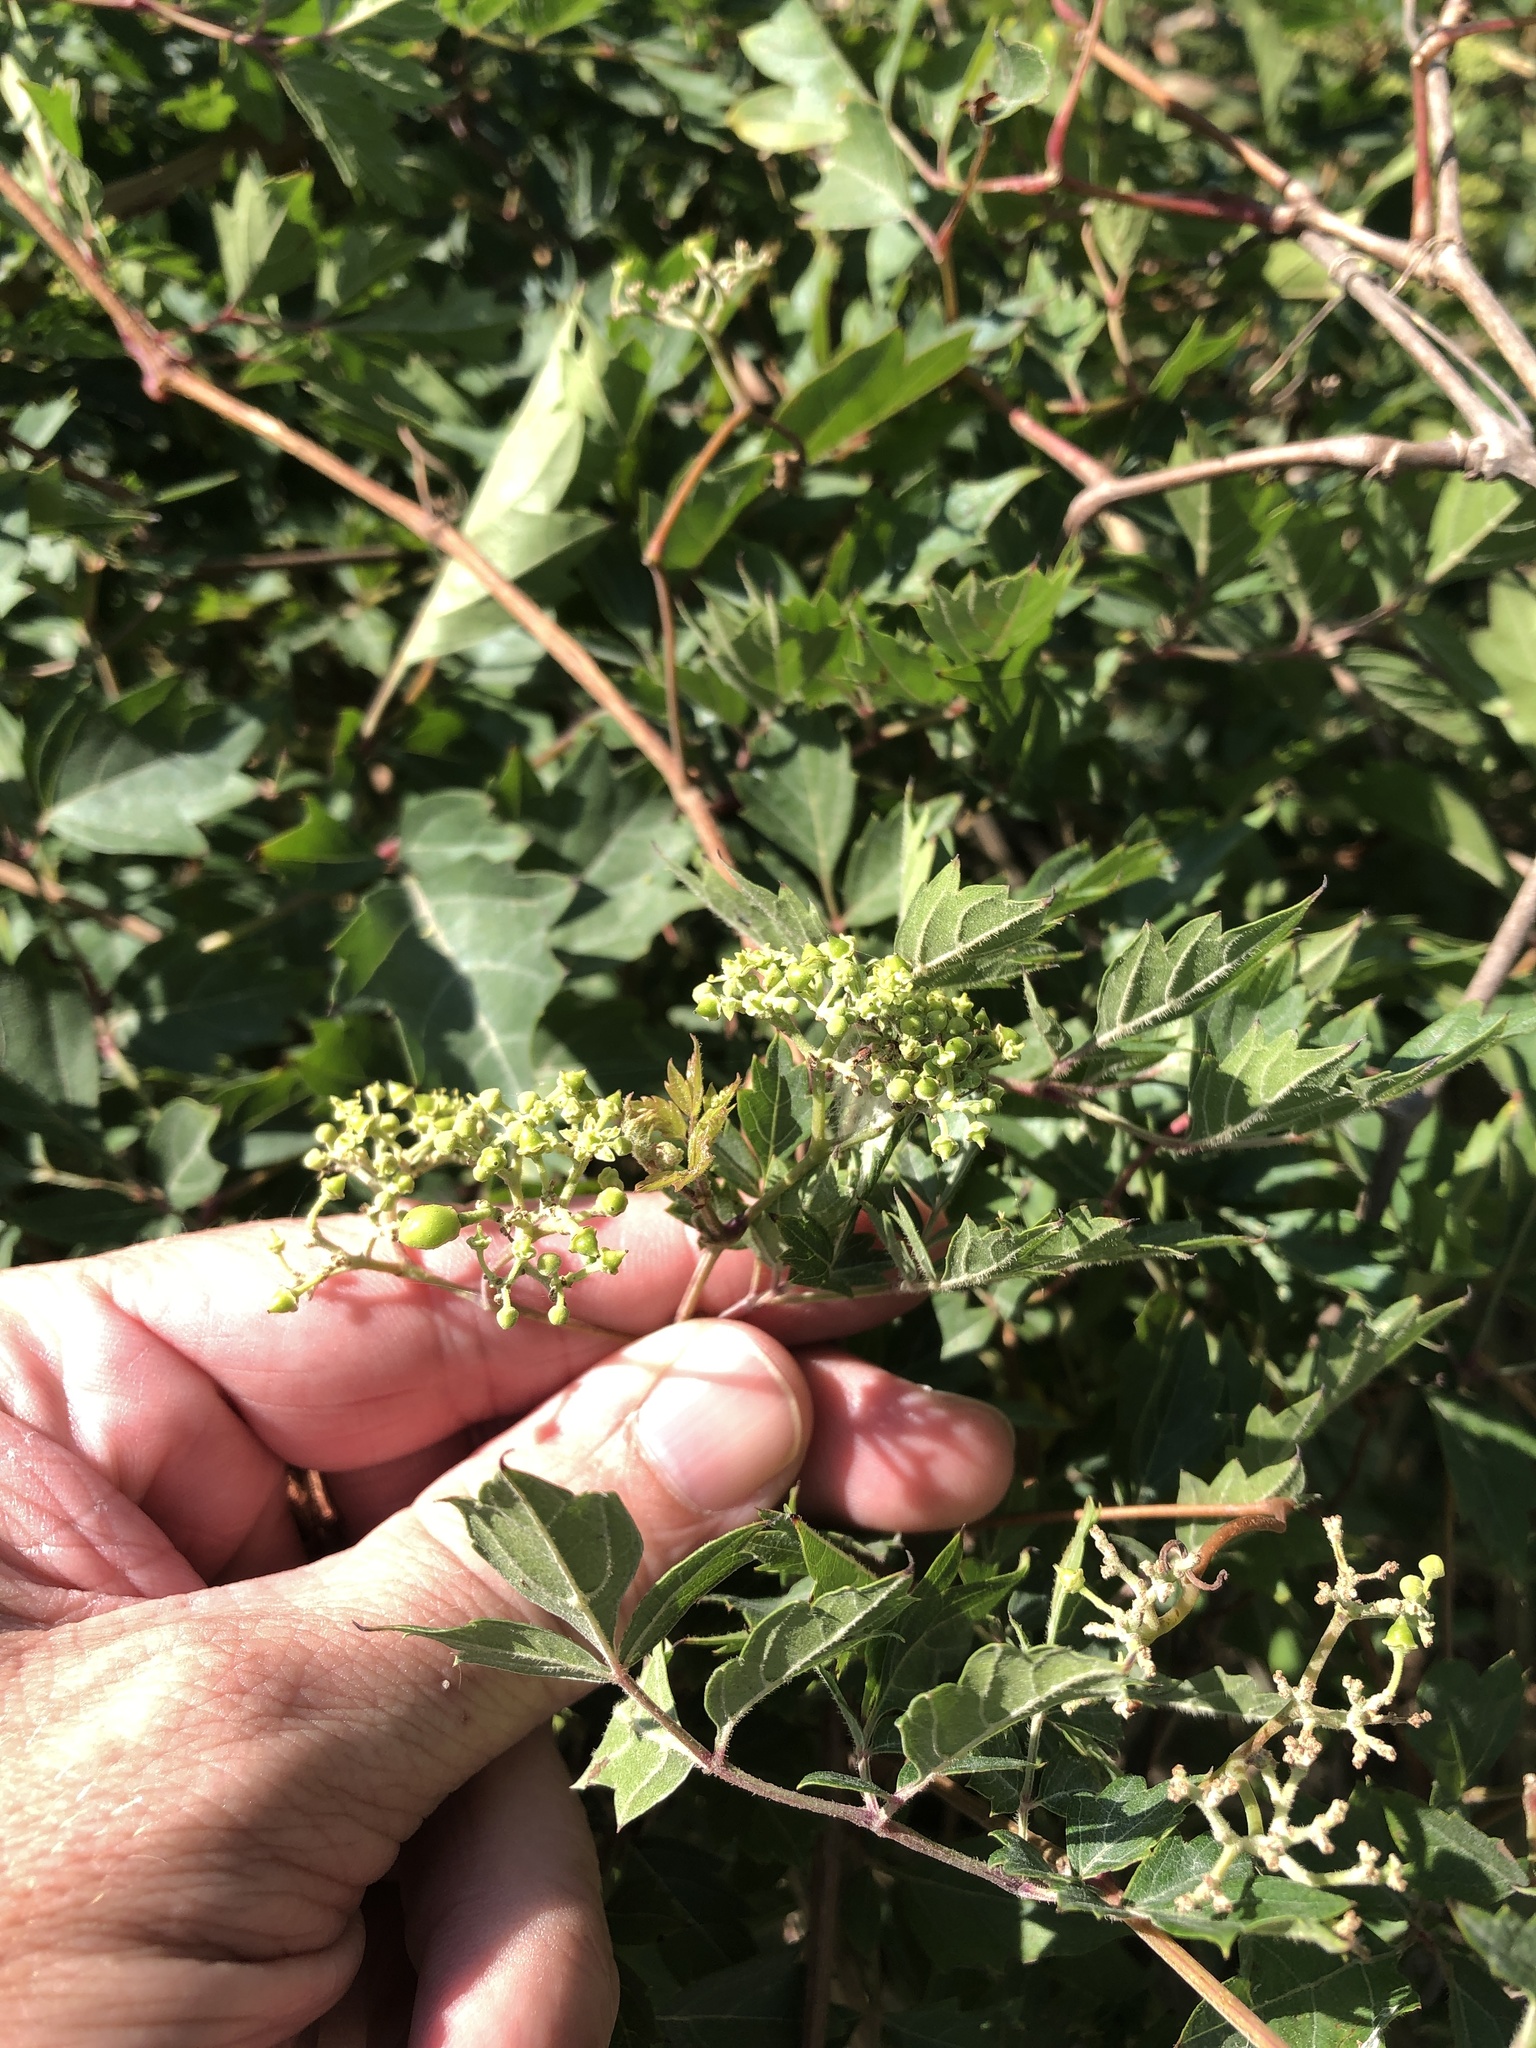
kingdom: Plantae
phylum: Tracheophyta
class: Magnoliopsida
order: Vitales
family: Vitaceae
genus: Nekemias
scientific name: Nekemias arborea
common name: Peppervine
